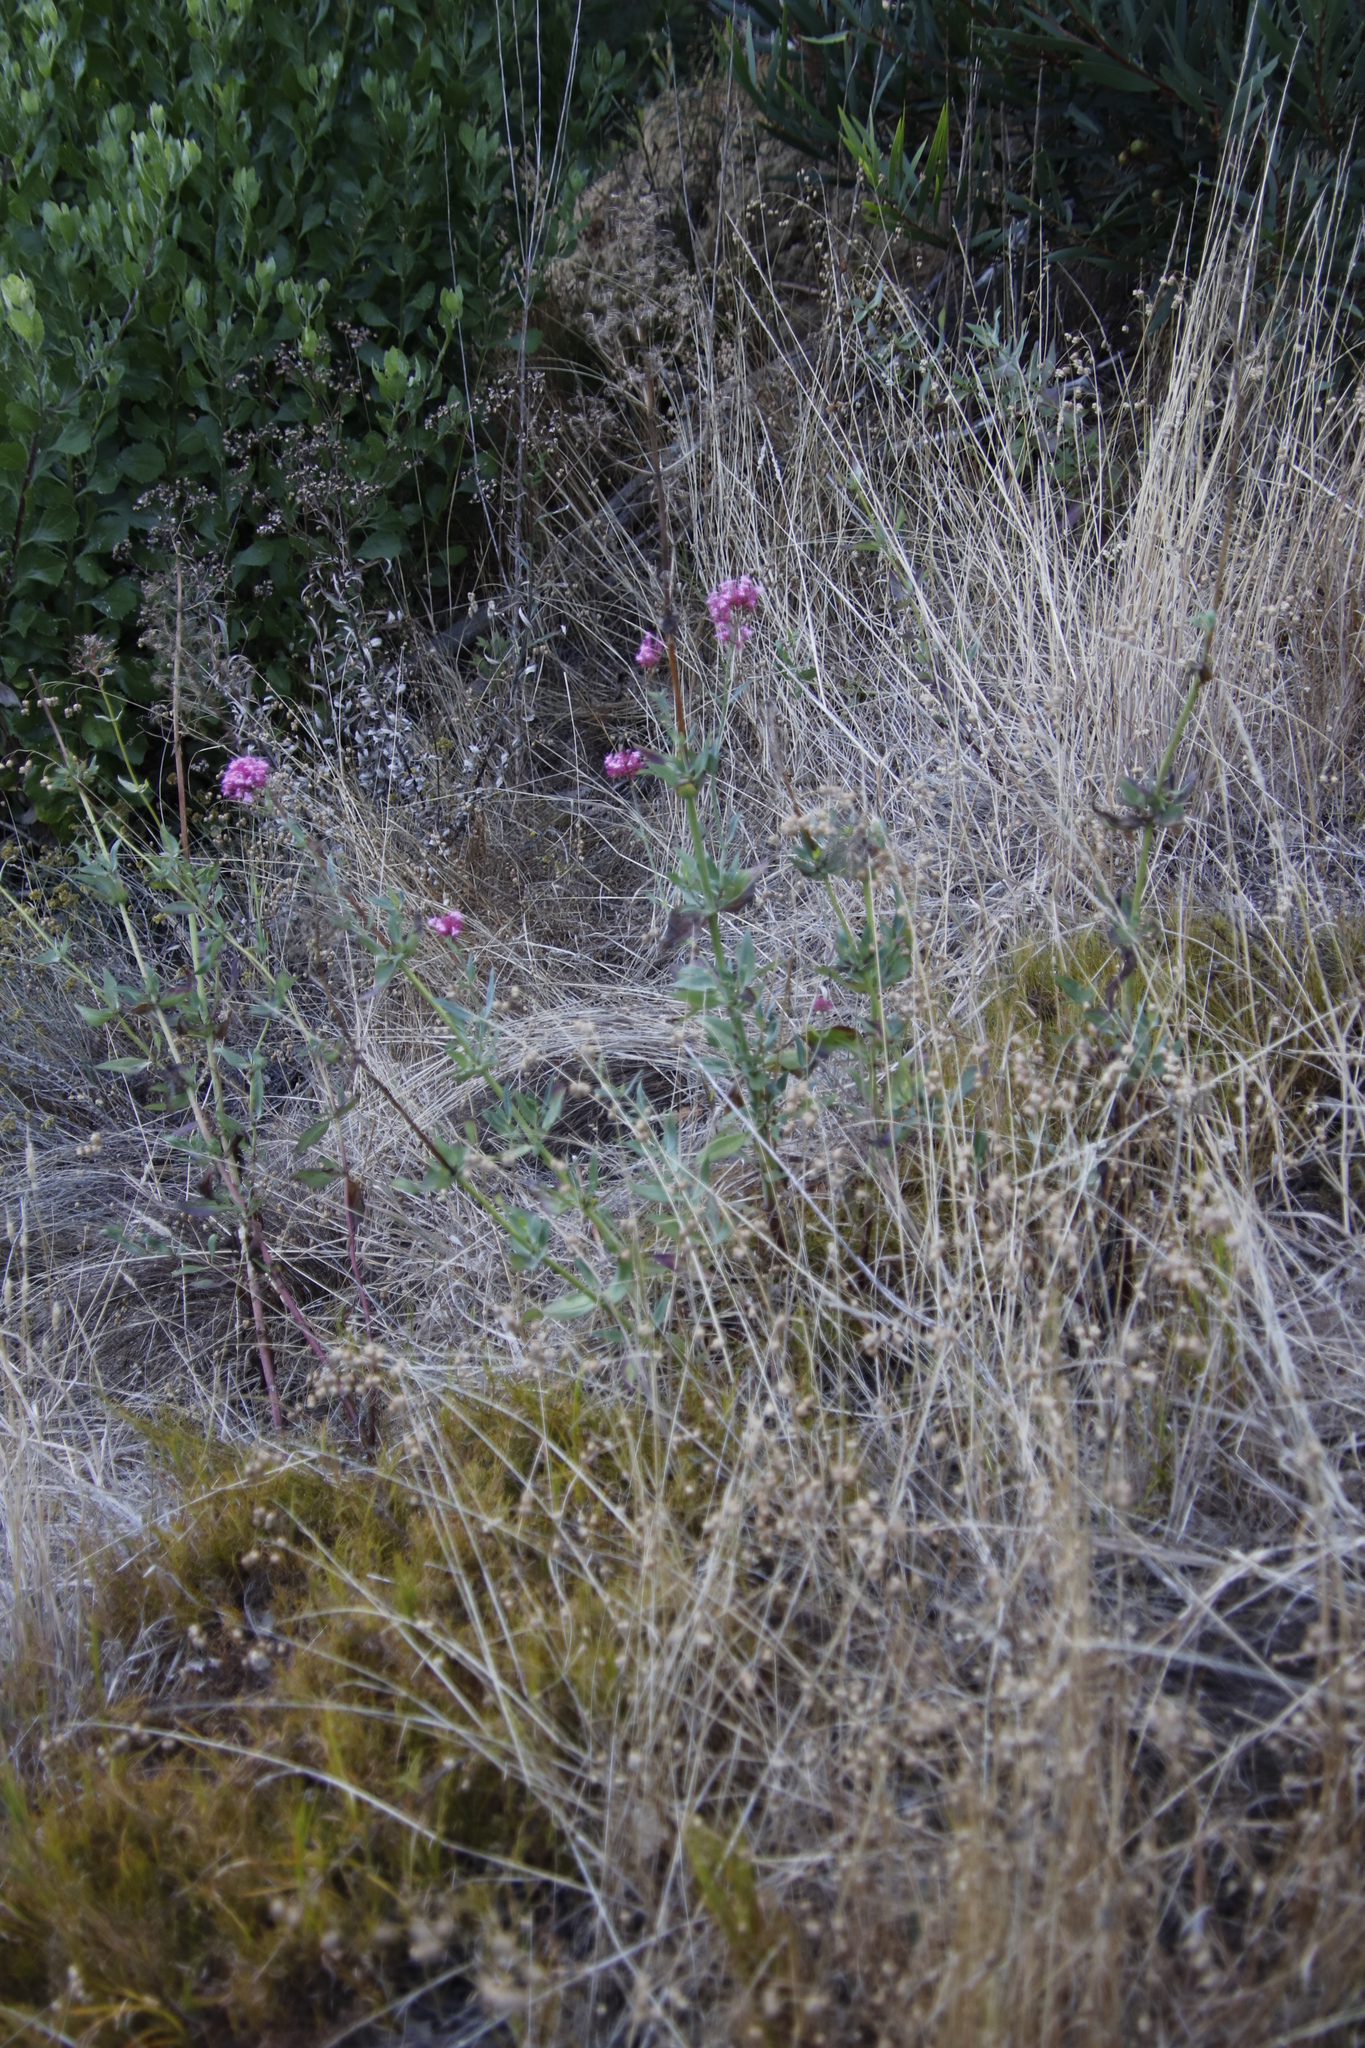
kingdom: Plantae
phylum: Tracheophyta
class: Magnoliopsida
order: Dipsacales
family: Caprifoliaceae
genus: Centranthus
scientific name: Centranthus ruber
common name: Red valerian
